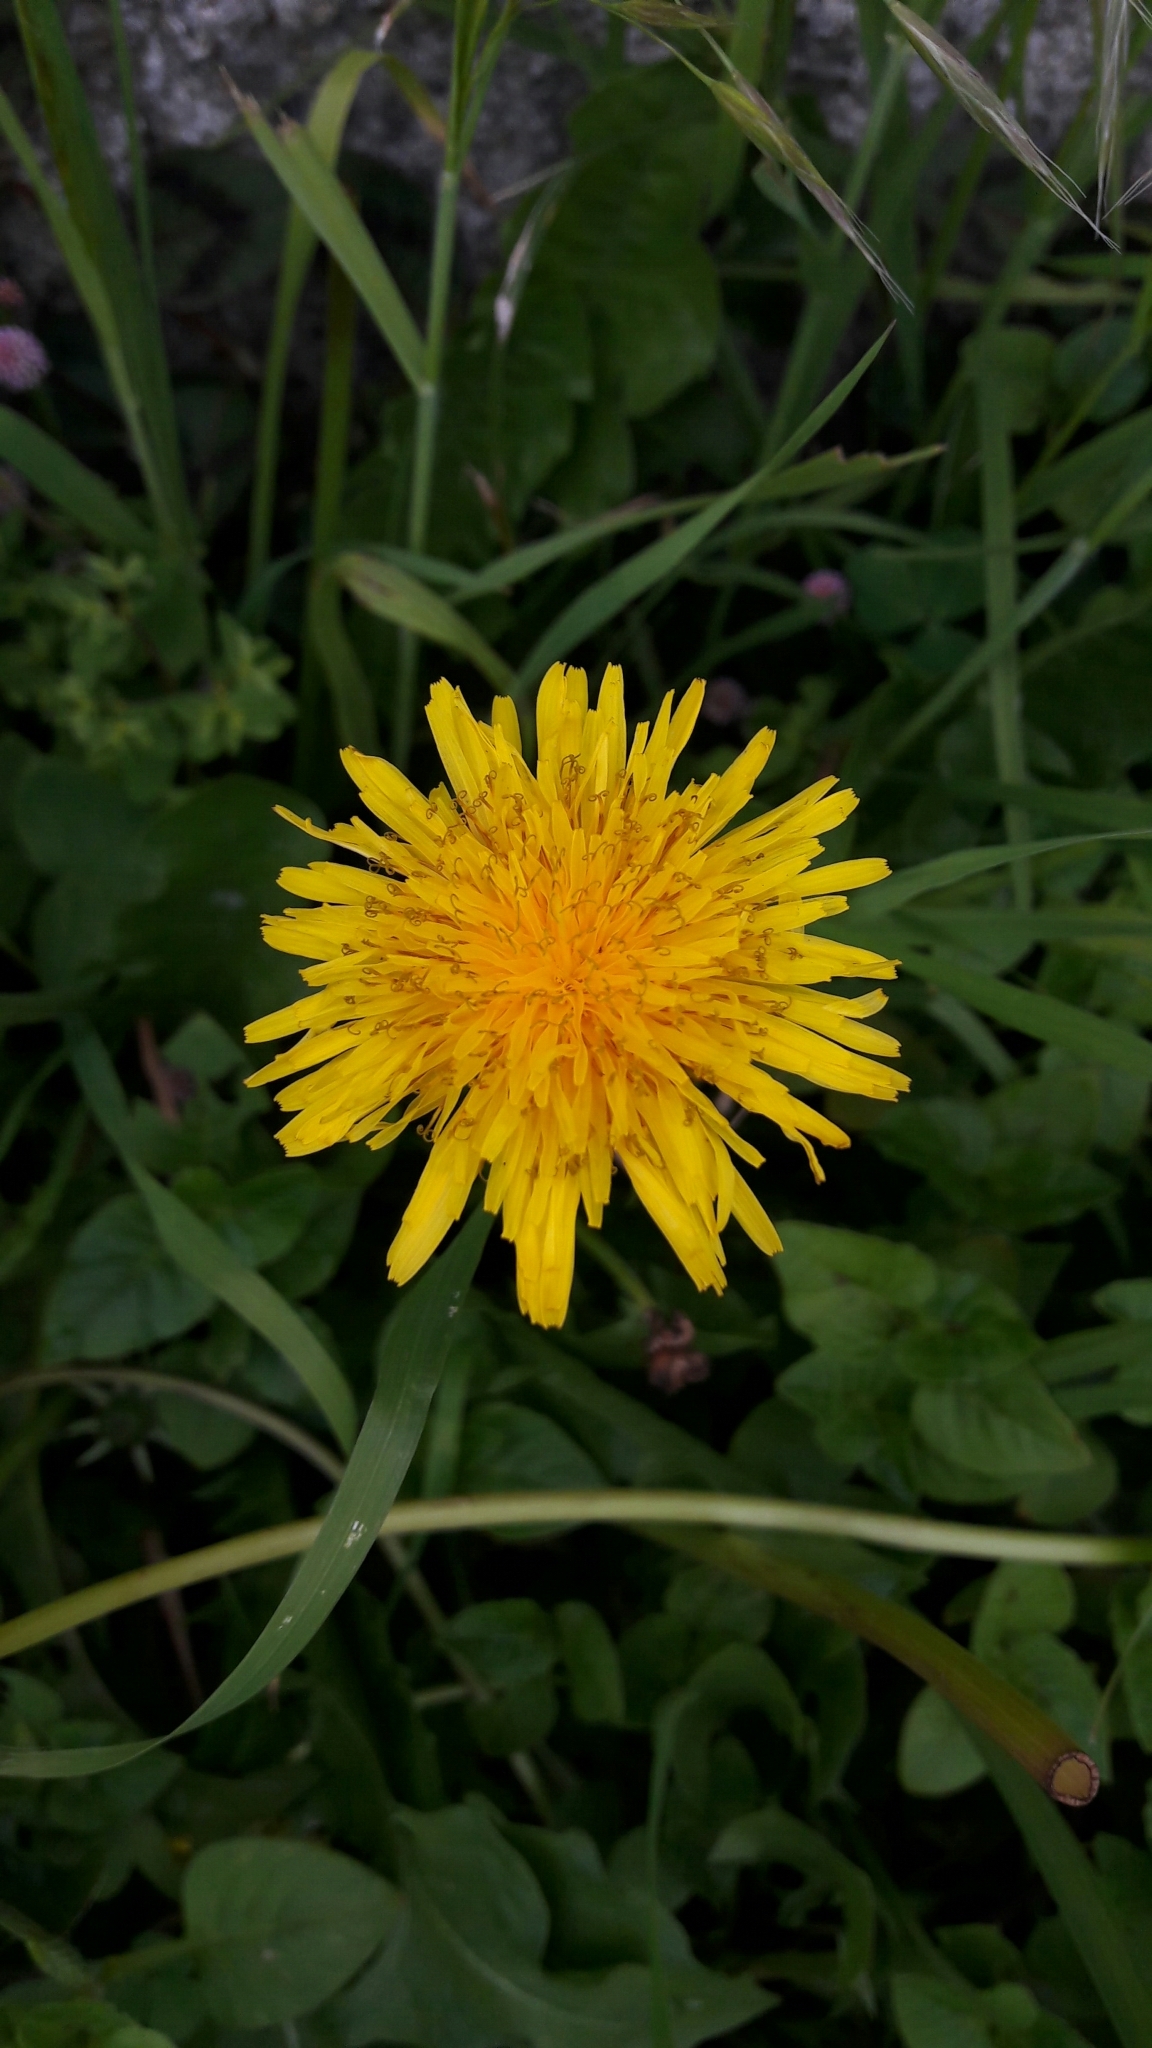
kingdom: Plantae
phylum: Tracheophyta
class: Magnoliopsida
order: Asterales
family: Asteraceae
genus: Taraxacum
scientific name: Taraxacum officinale
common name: Common dandelion
